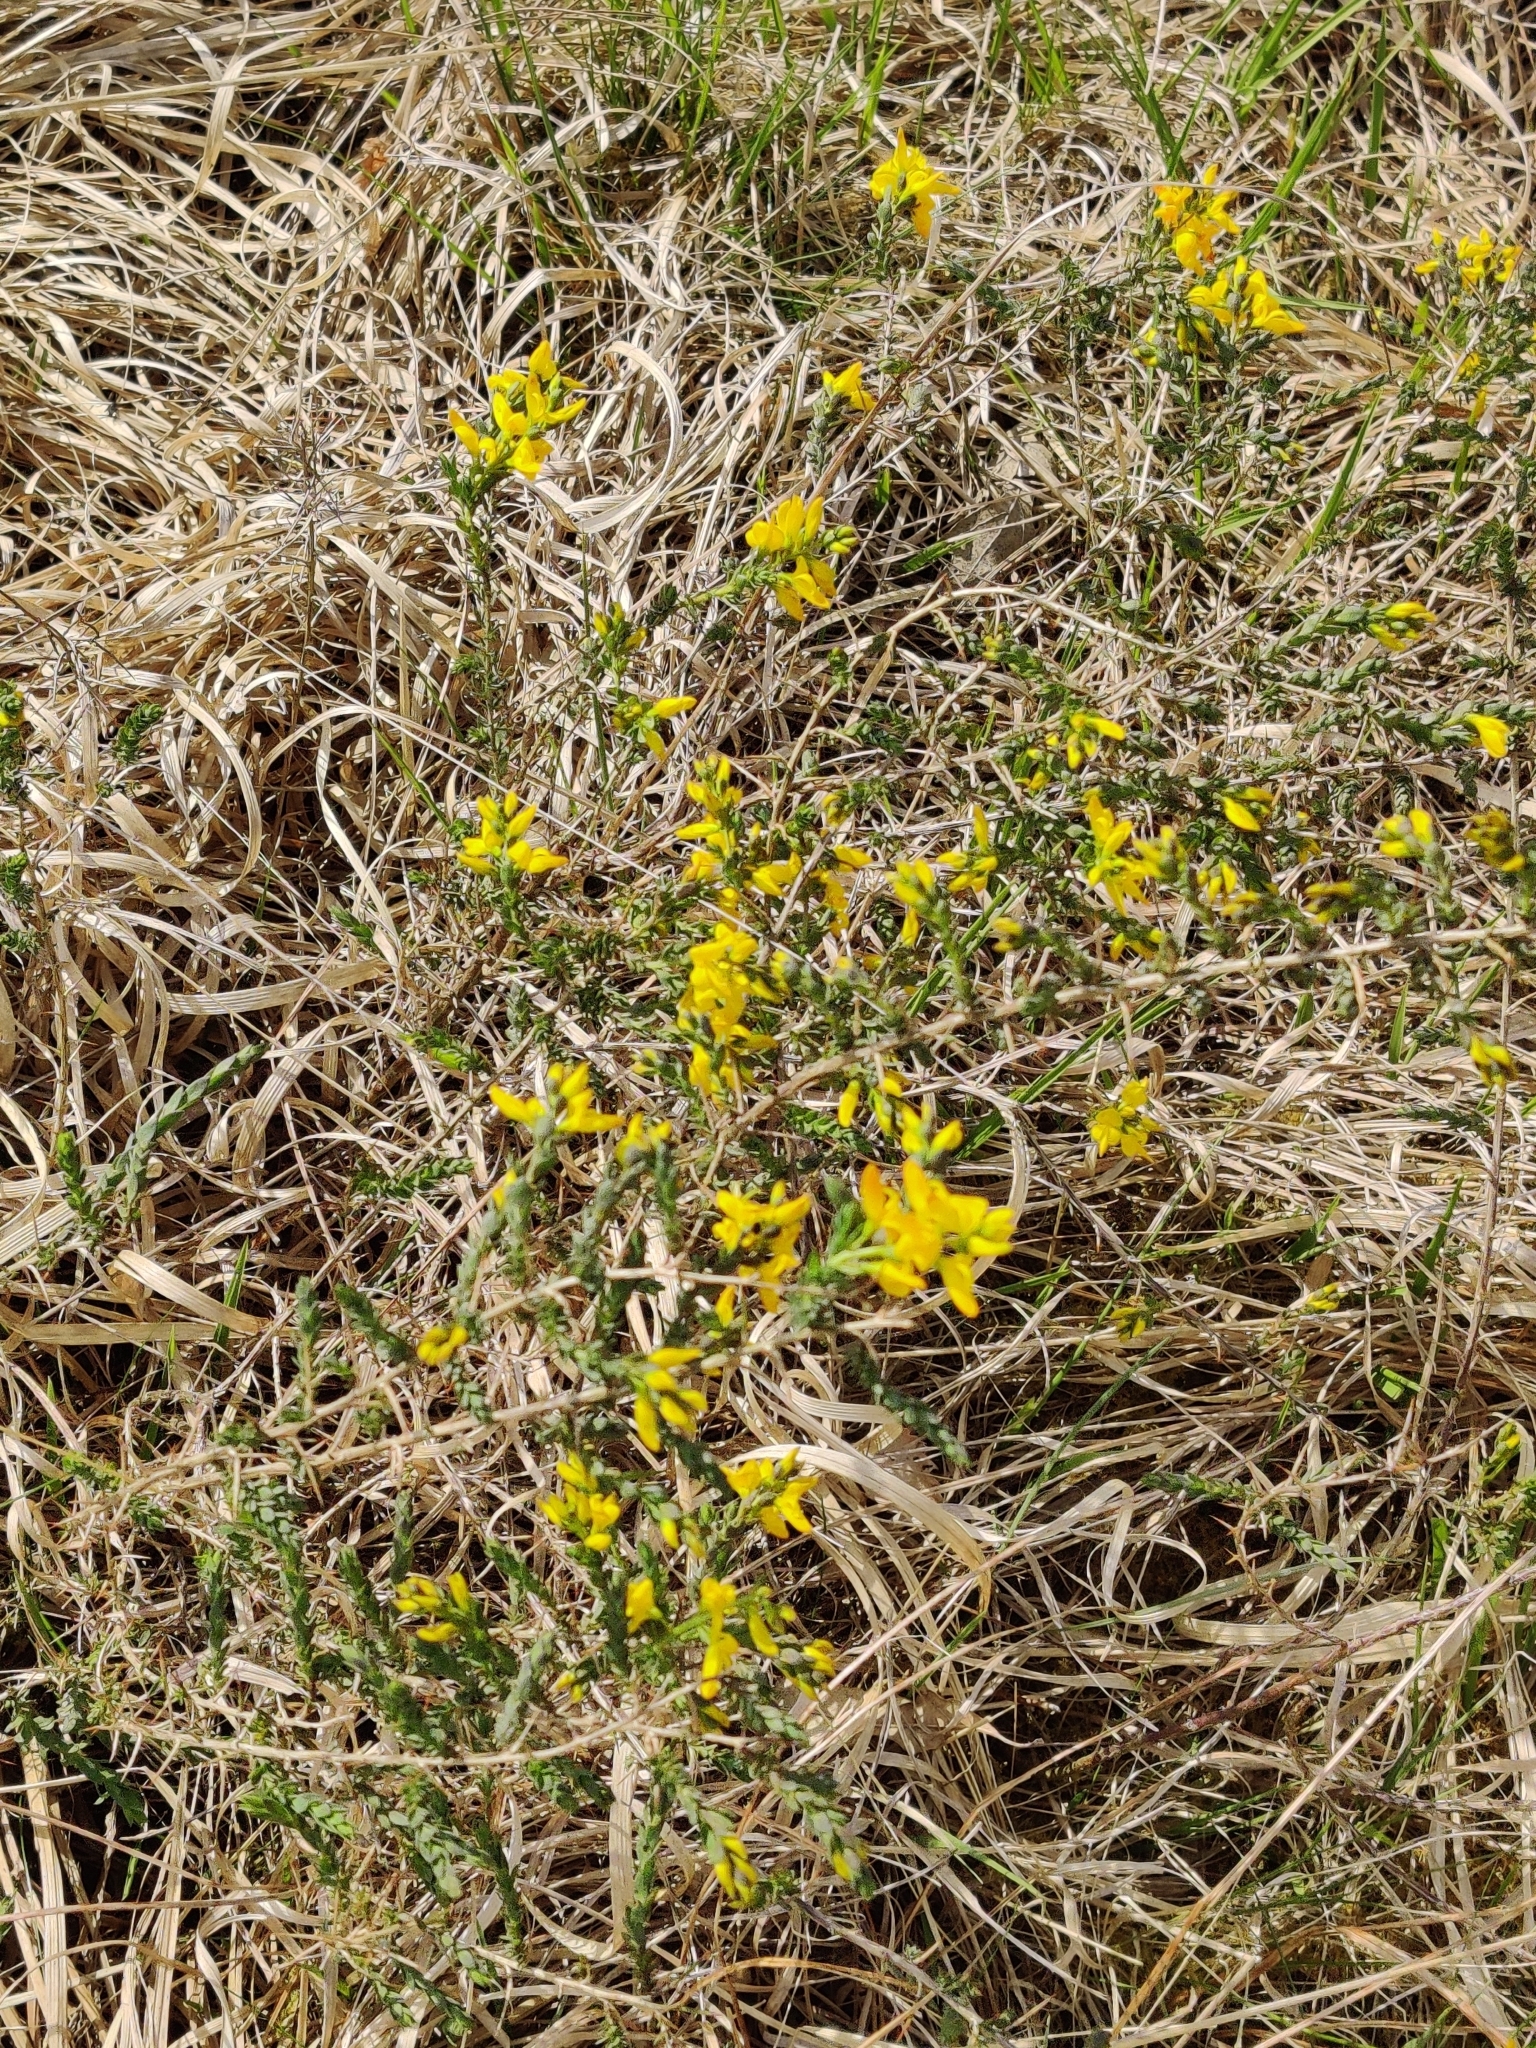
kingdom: Plantae
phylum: Tracheophyta
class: Magnoliopsida
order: Fabales
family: Fabaceae
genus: Genista
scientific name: Genista anglica
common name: Petty whin
